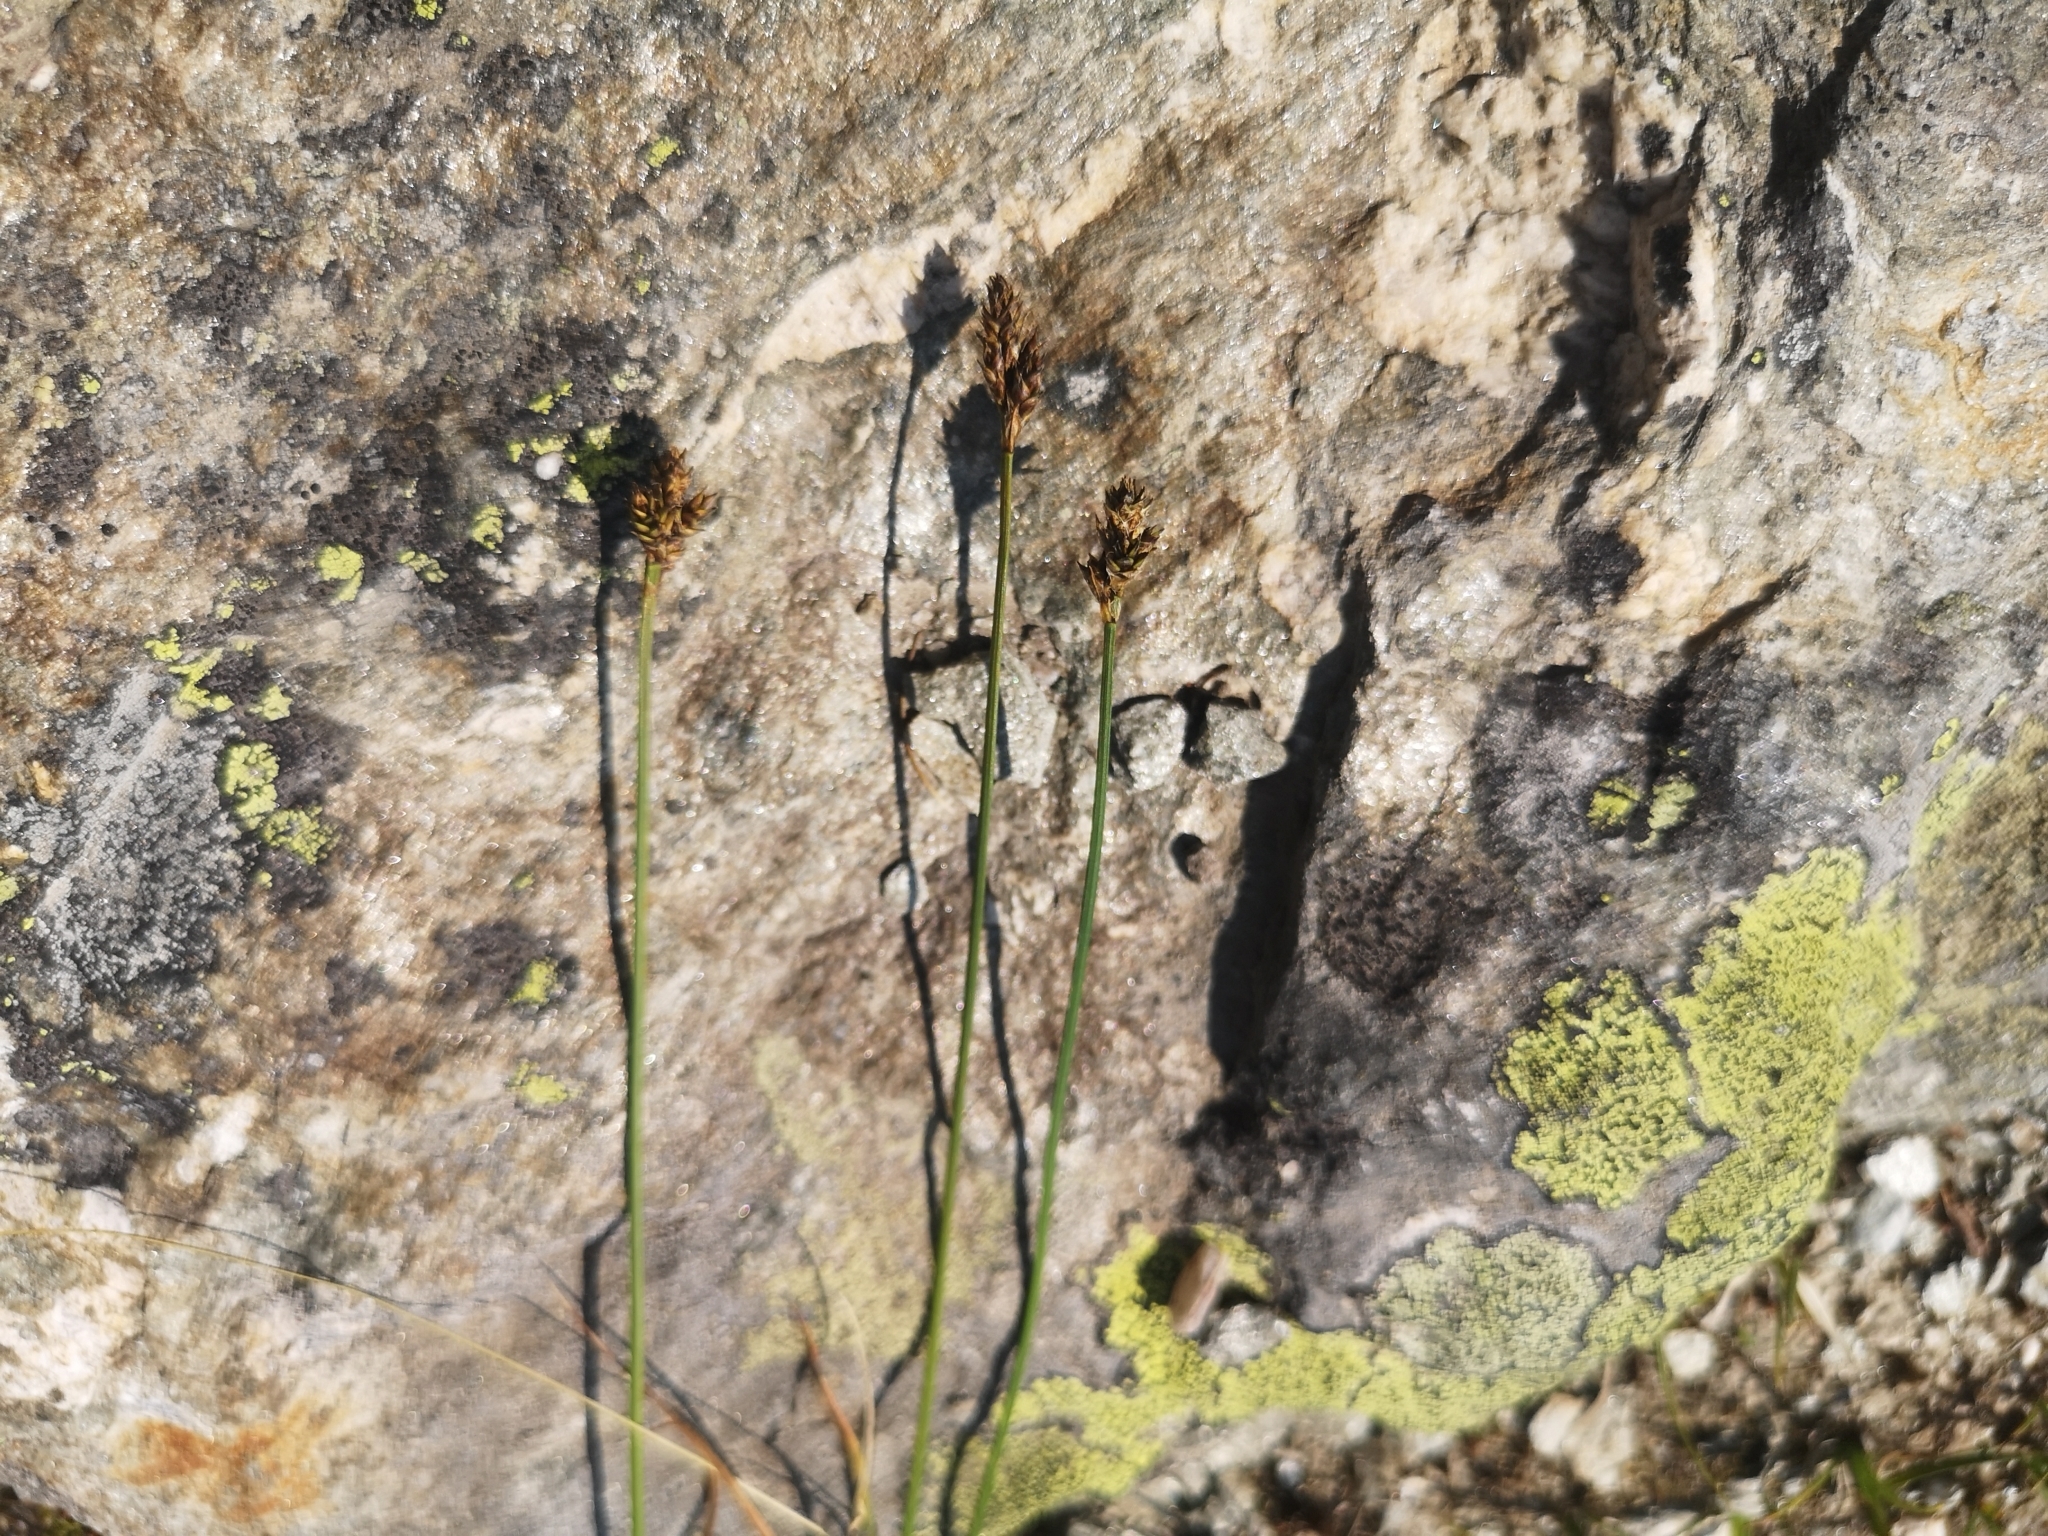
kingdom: Plantae
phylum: Tracheophyta
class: Liliopsida
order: Poales
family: Cyperaceae
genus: Carex
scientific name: Carex lachenalii
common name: Hare's-foot sedge
